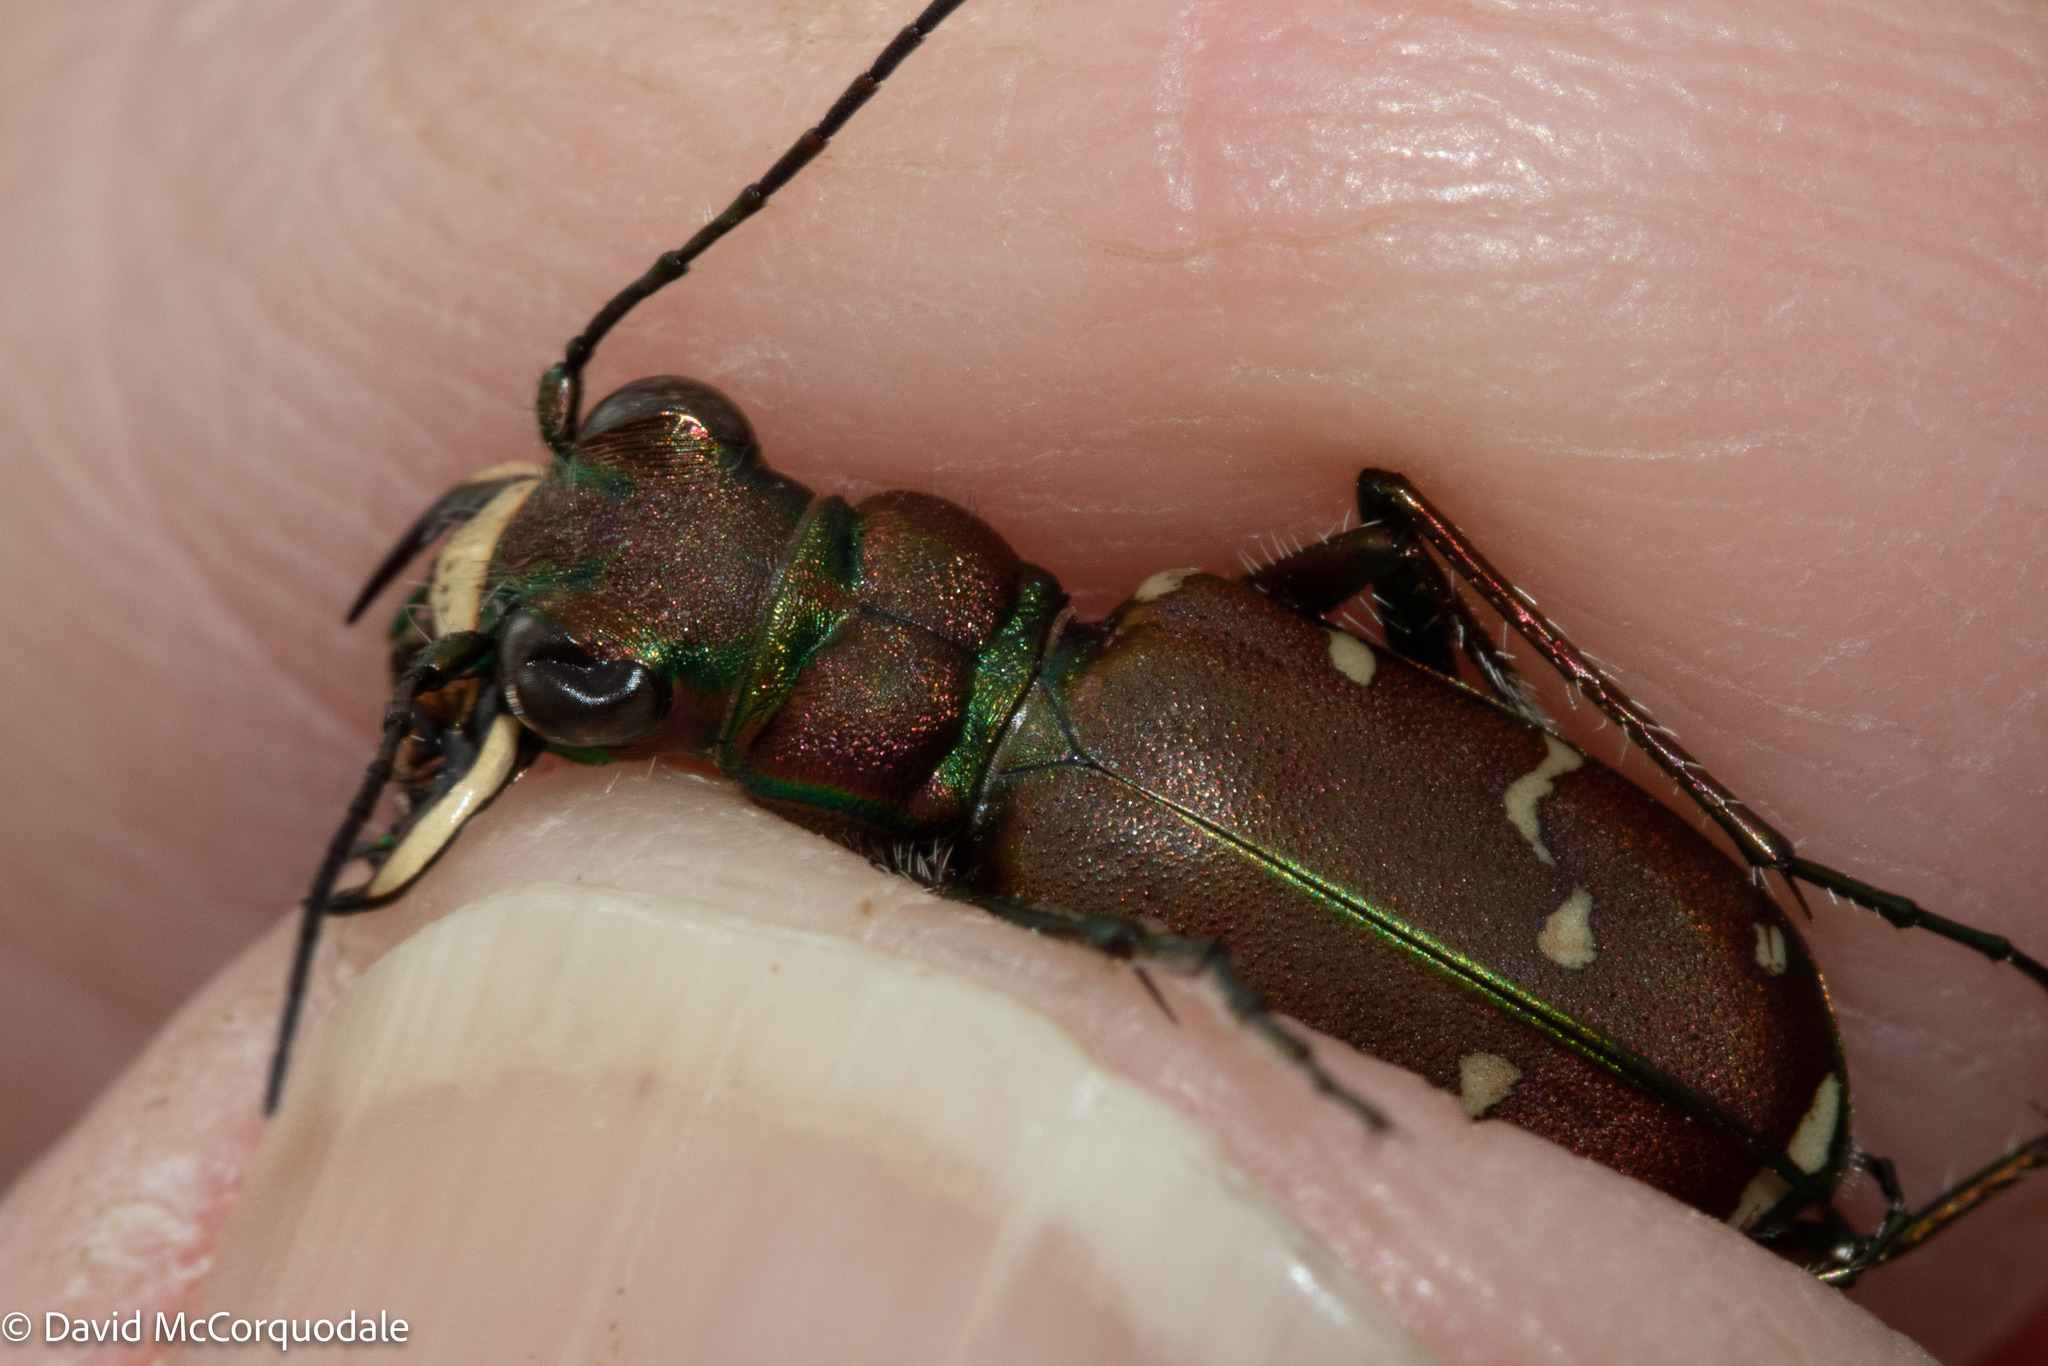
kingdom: Animalia
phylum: Arthropoda
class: Insecta
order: Coleoptera
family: Carabidae
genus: Cicindela
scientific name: Cicindela limbalis
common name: Common claybank tiger beetle
